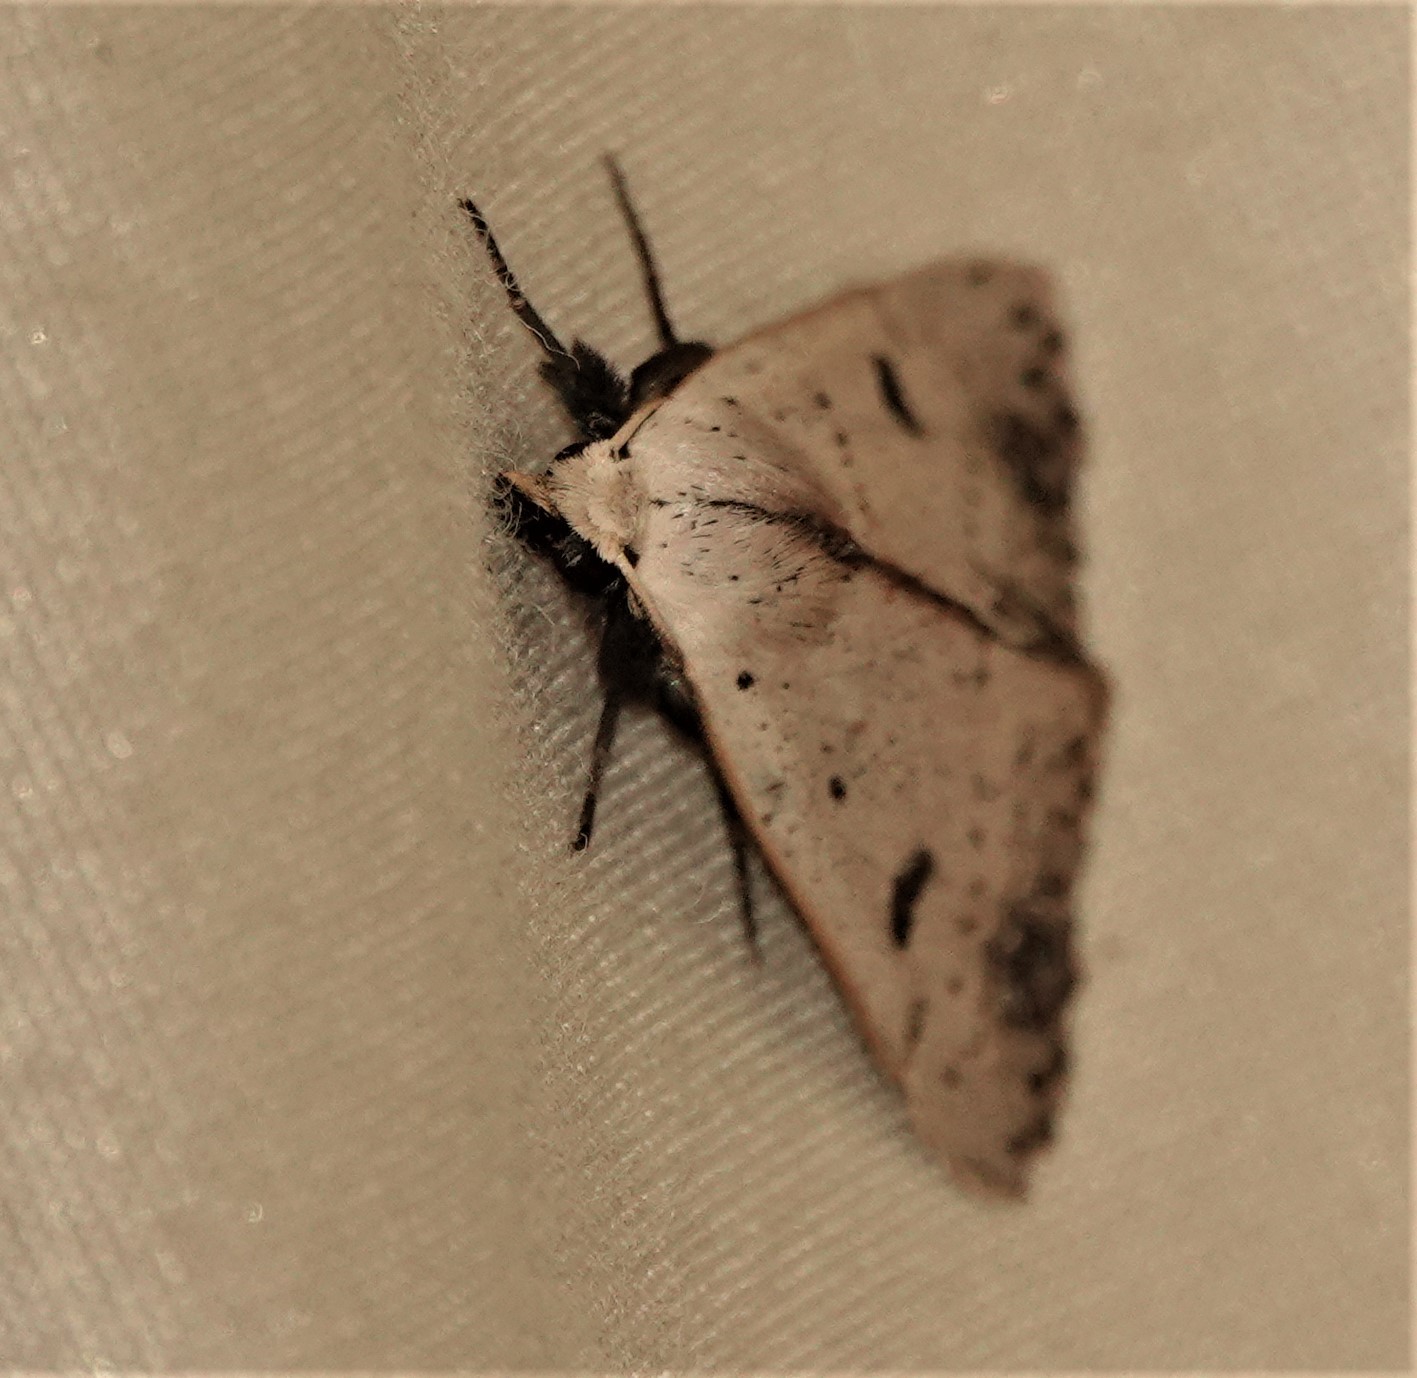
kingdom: Animalia
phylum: Arthropoda
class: Insecta
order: Lepidoptera
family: Erebidae
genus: Scolecocampa
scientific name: Scolecocampa liburna
